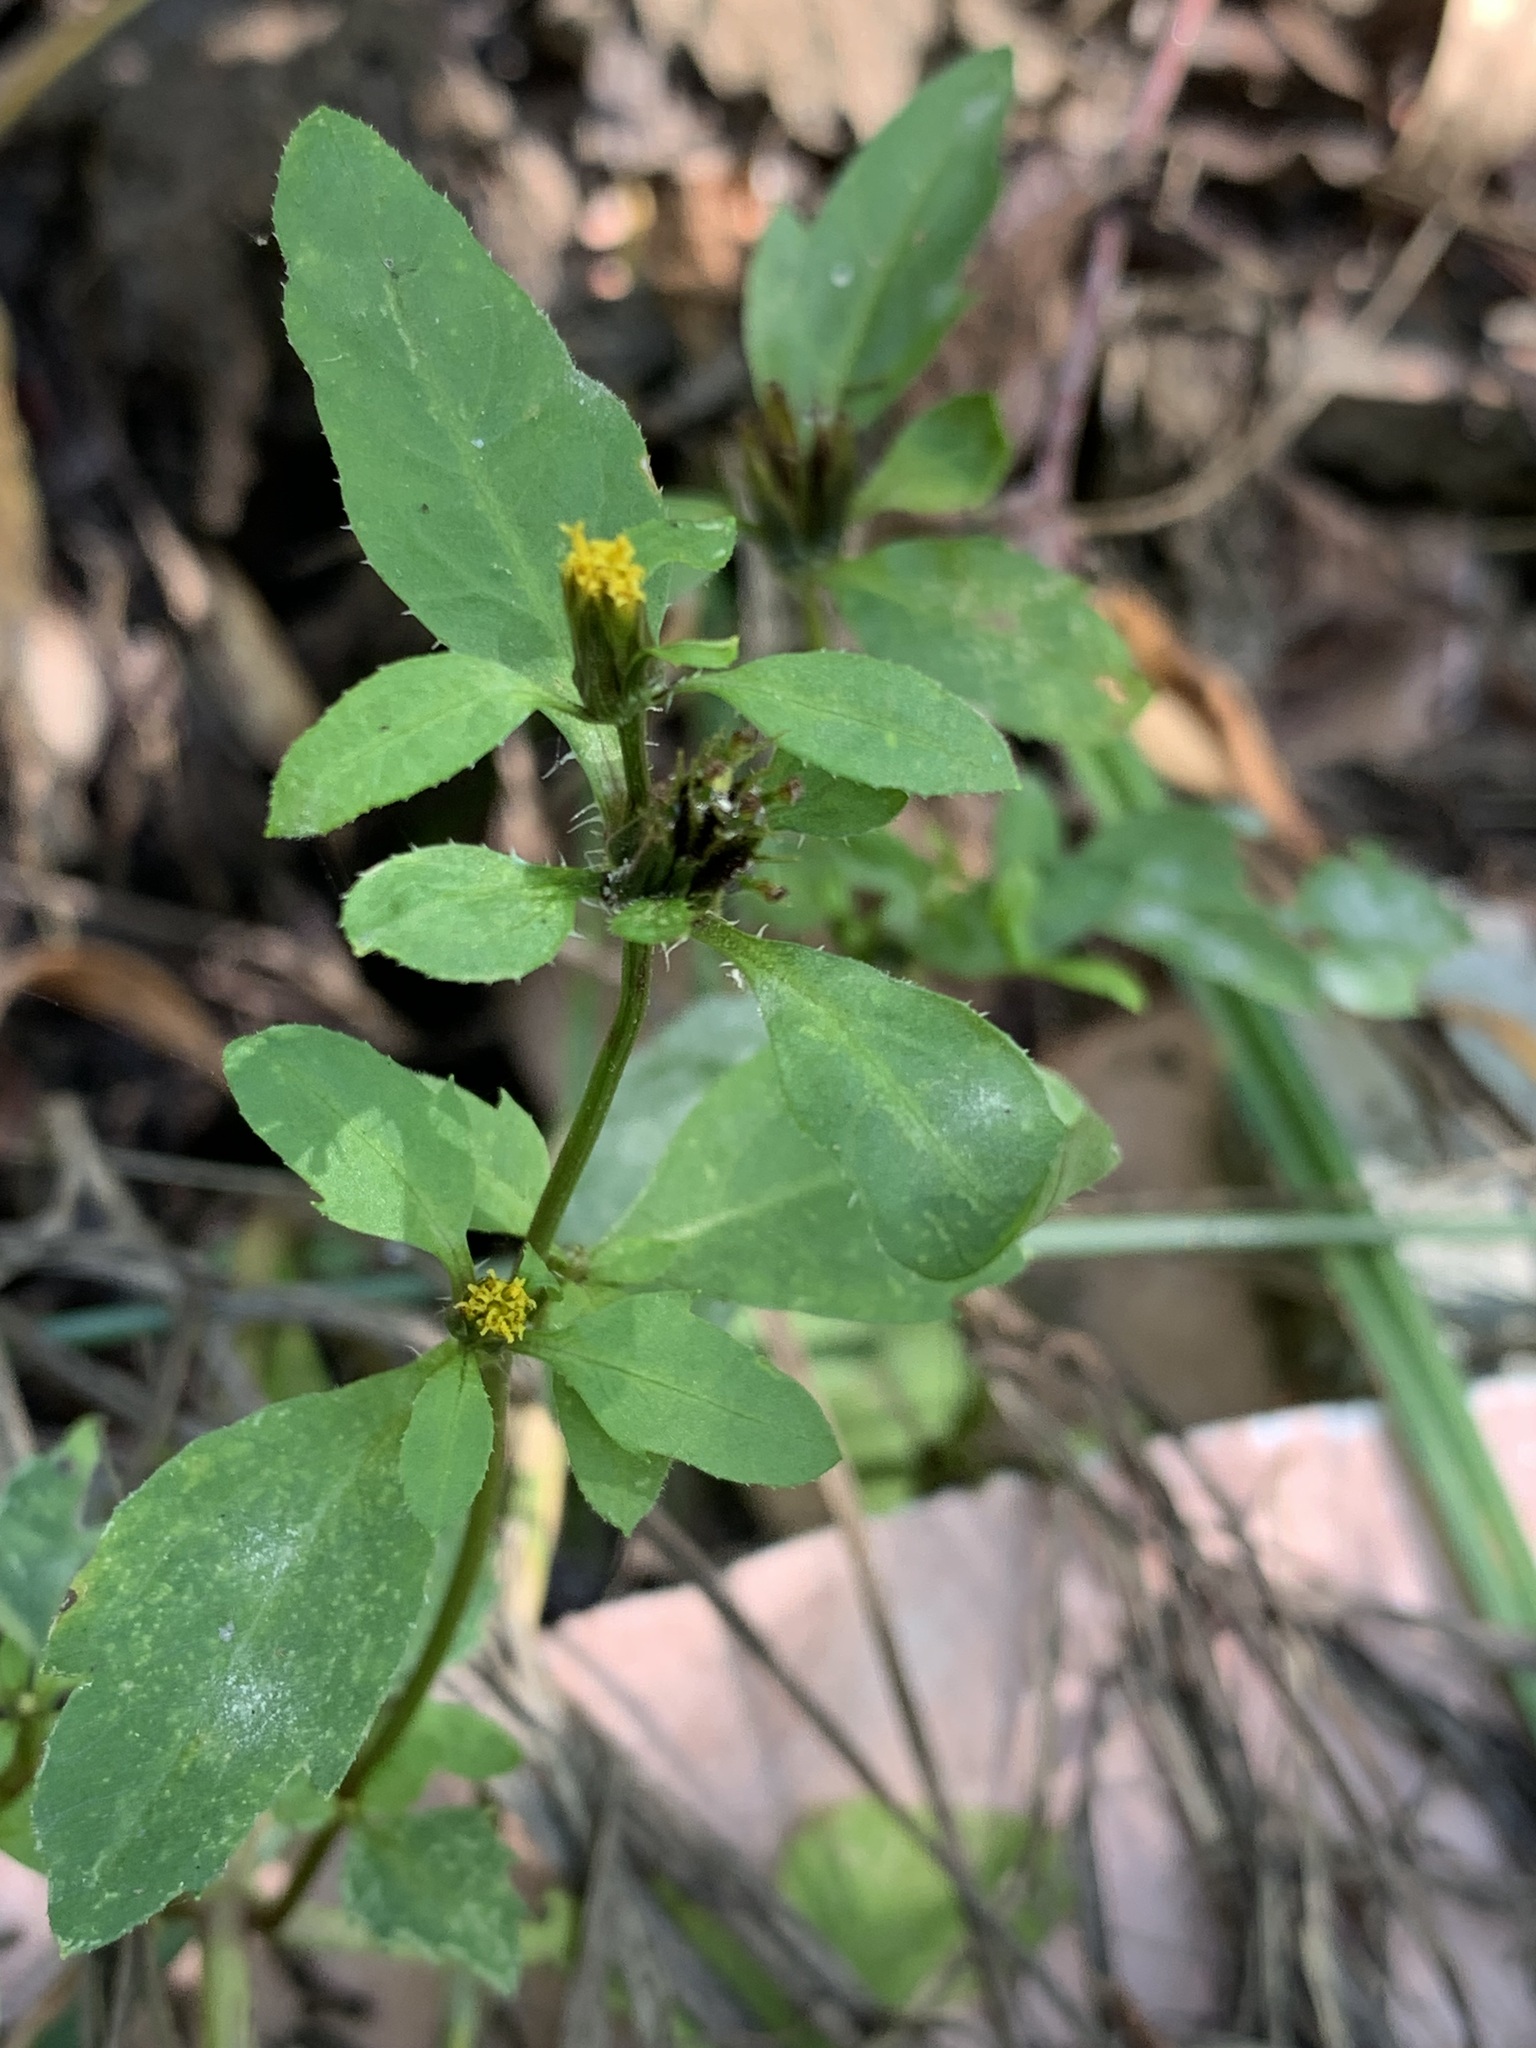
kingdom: Plantae
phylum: Tracheophyta
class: Magnoliopsida
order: Asterales
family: Asteraceae
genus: Bidens
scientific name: Bidens tripartita
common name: Trifid bur-marigold
